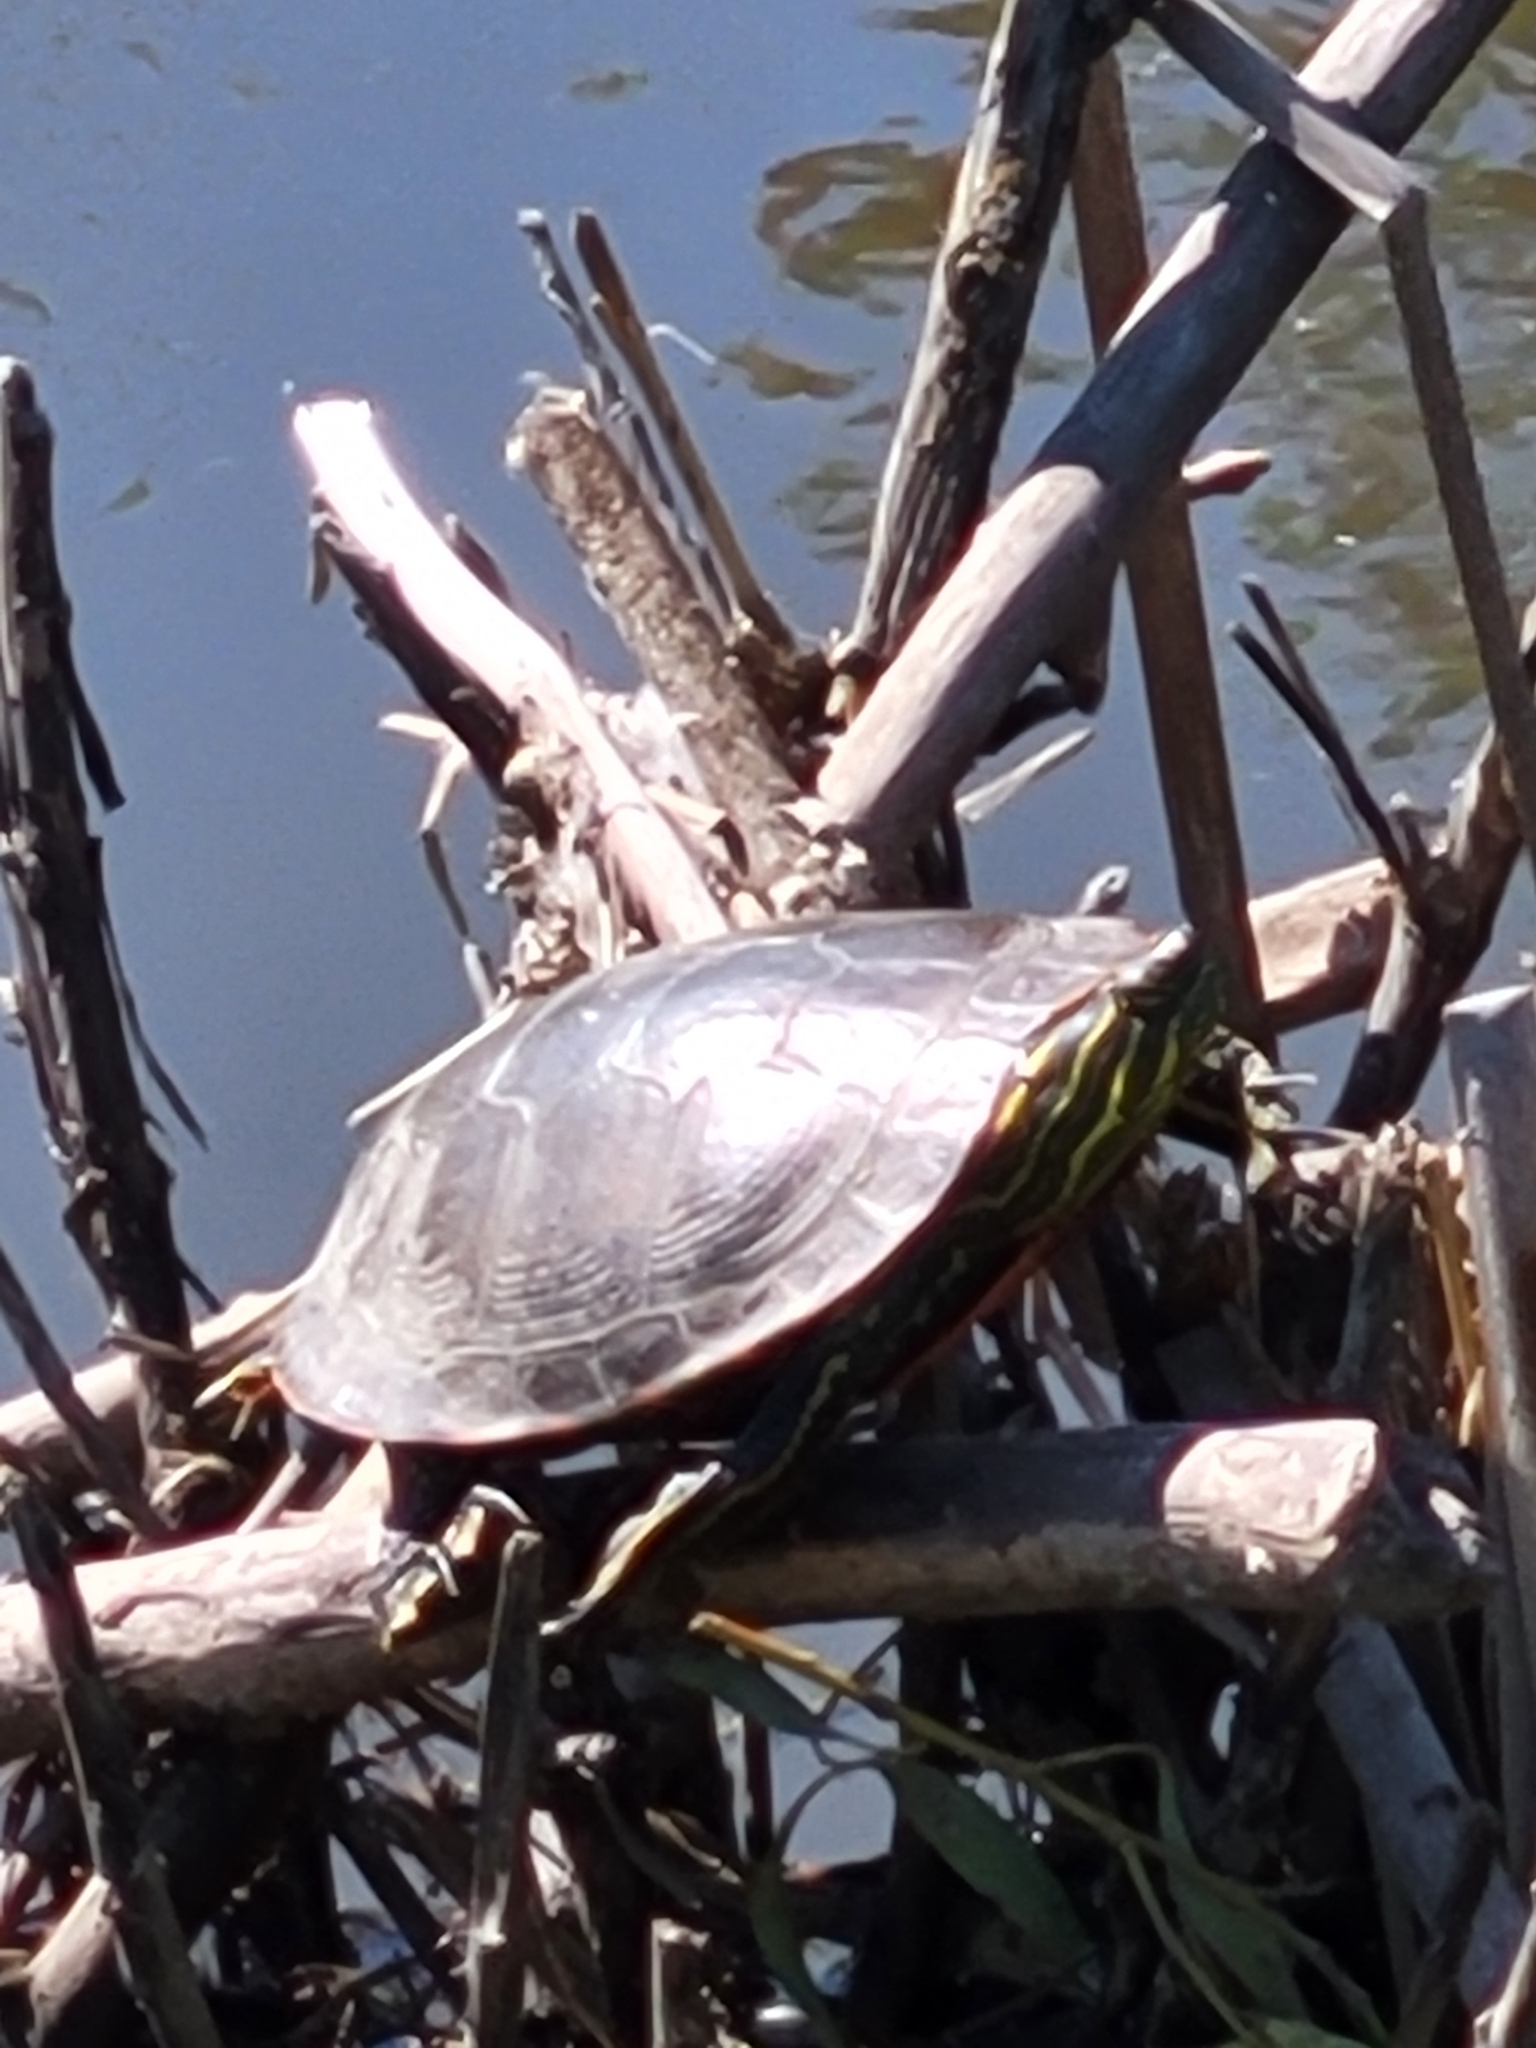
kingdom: Animalia
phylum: Chordata
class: Testudines
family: Emydidae
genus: Chrysemys
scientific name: Chrysemys picta
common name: Painted turtle
